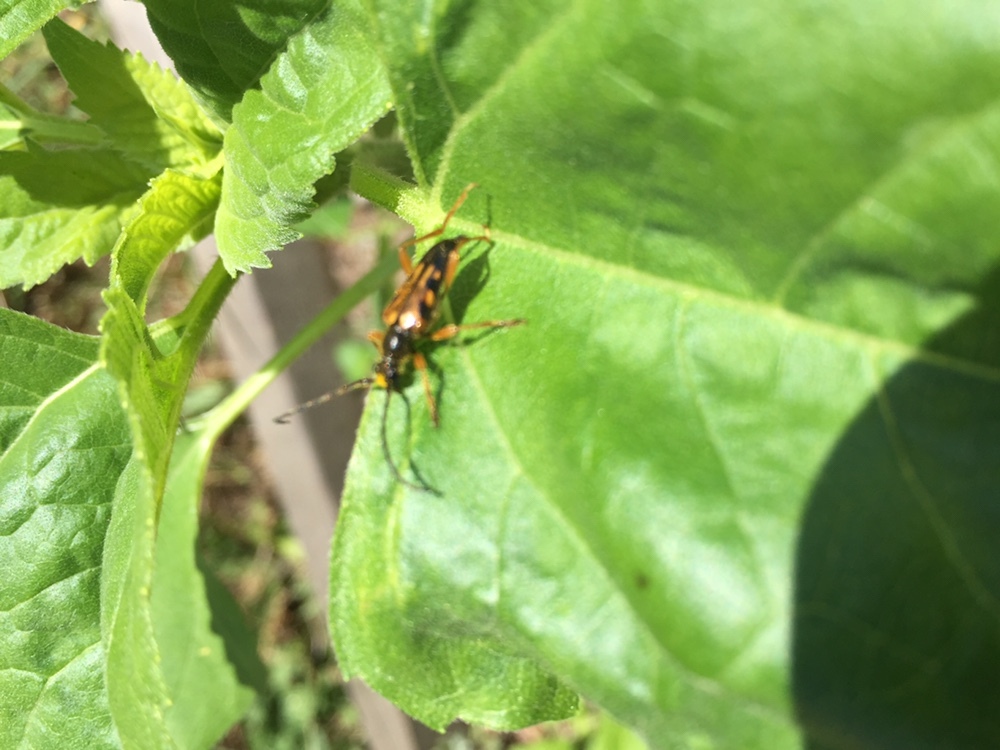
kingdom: Animalia
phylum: Arthropoda
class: Insecta
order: Coleoptera
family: Cerambycidae
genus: Xestoleptura
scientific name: Xestoleptura crassipes
